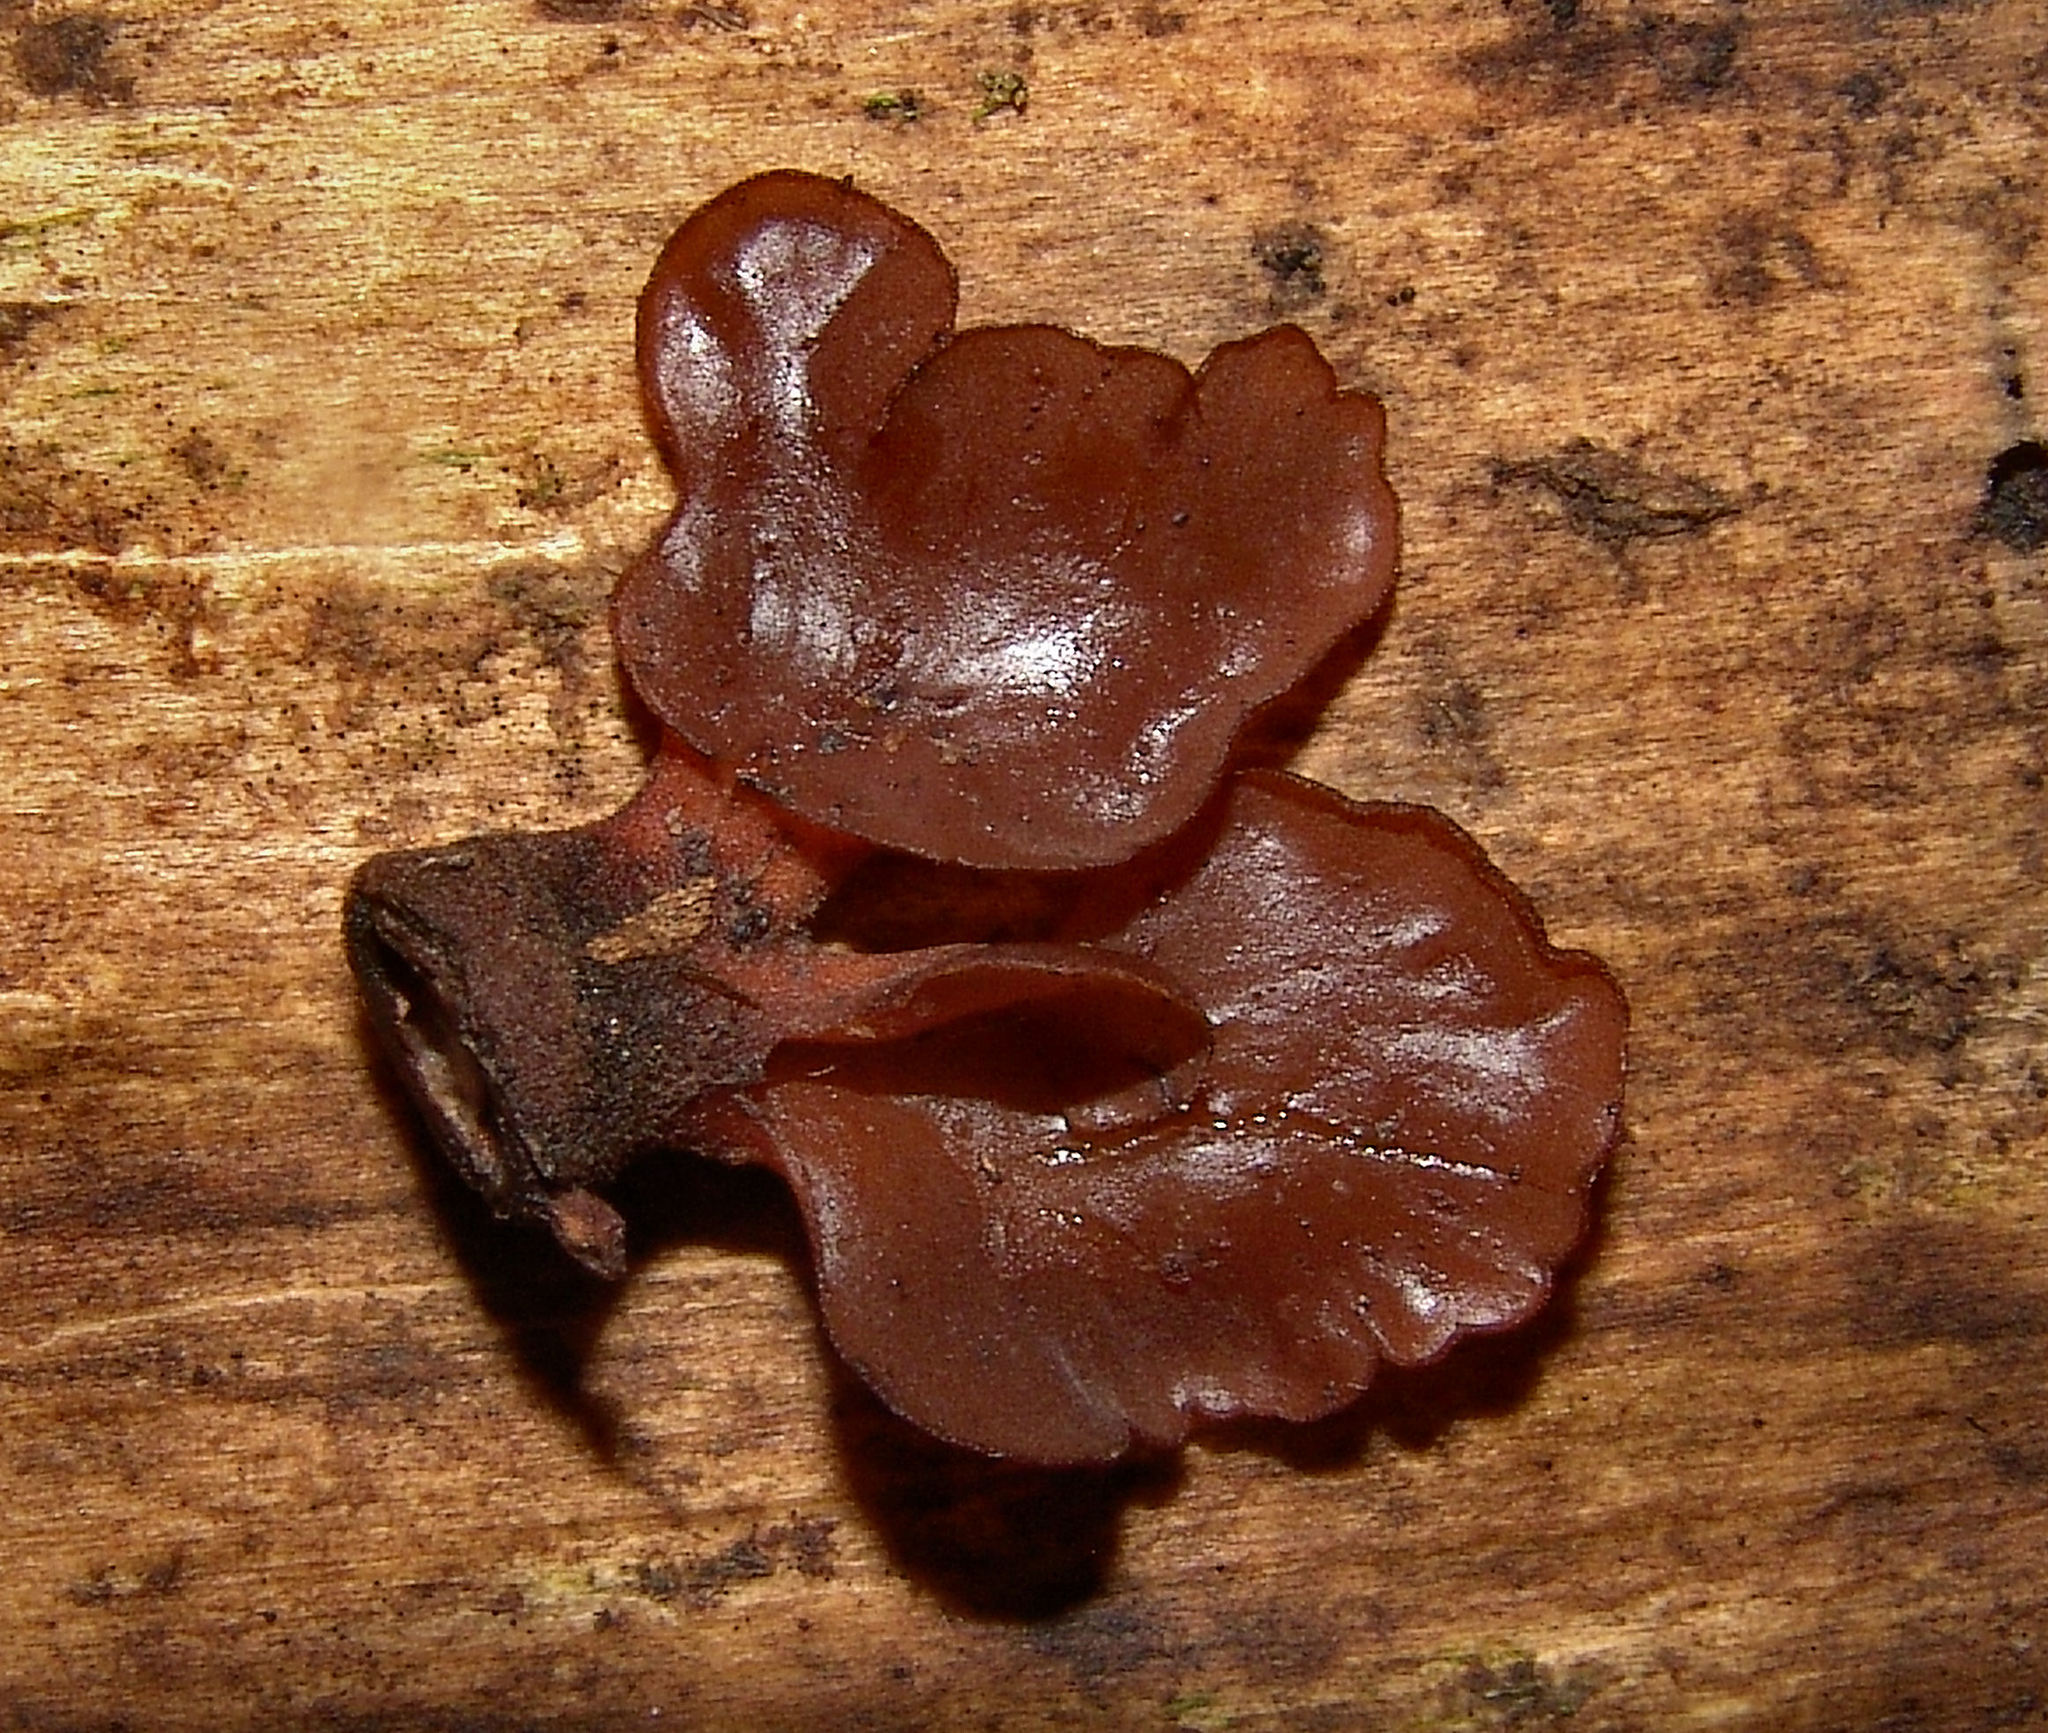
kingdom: Fungi
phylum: Basidiomycota
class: Dacrymycetes
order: Dacrymycetales
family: Dacrymycetaceae
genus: Dacryopinax
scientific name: Dacryopinax elegans
